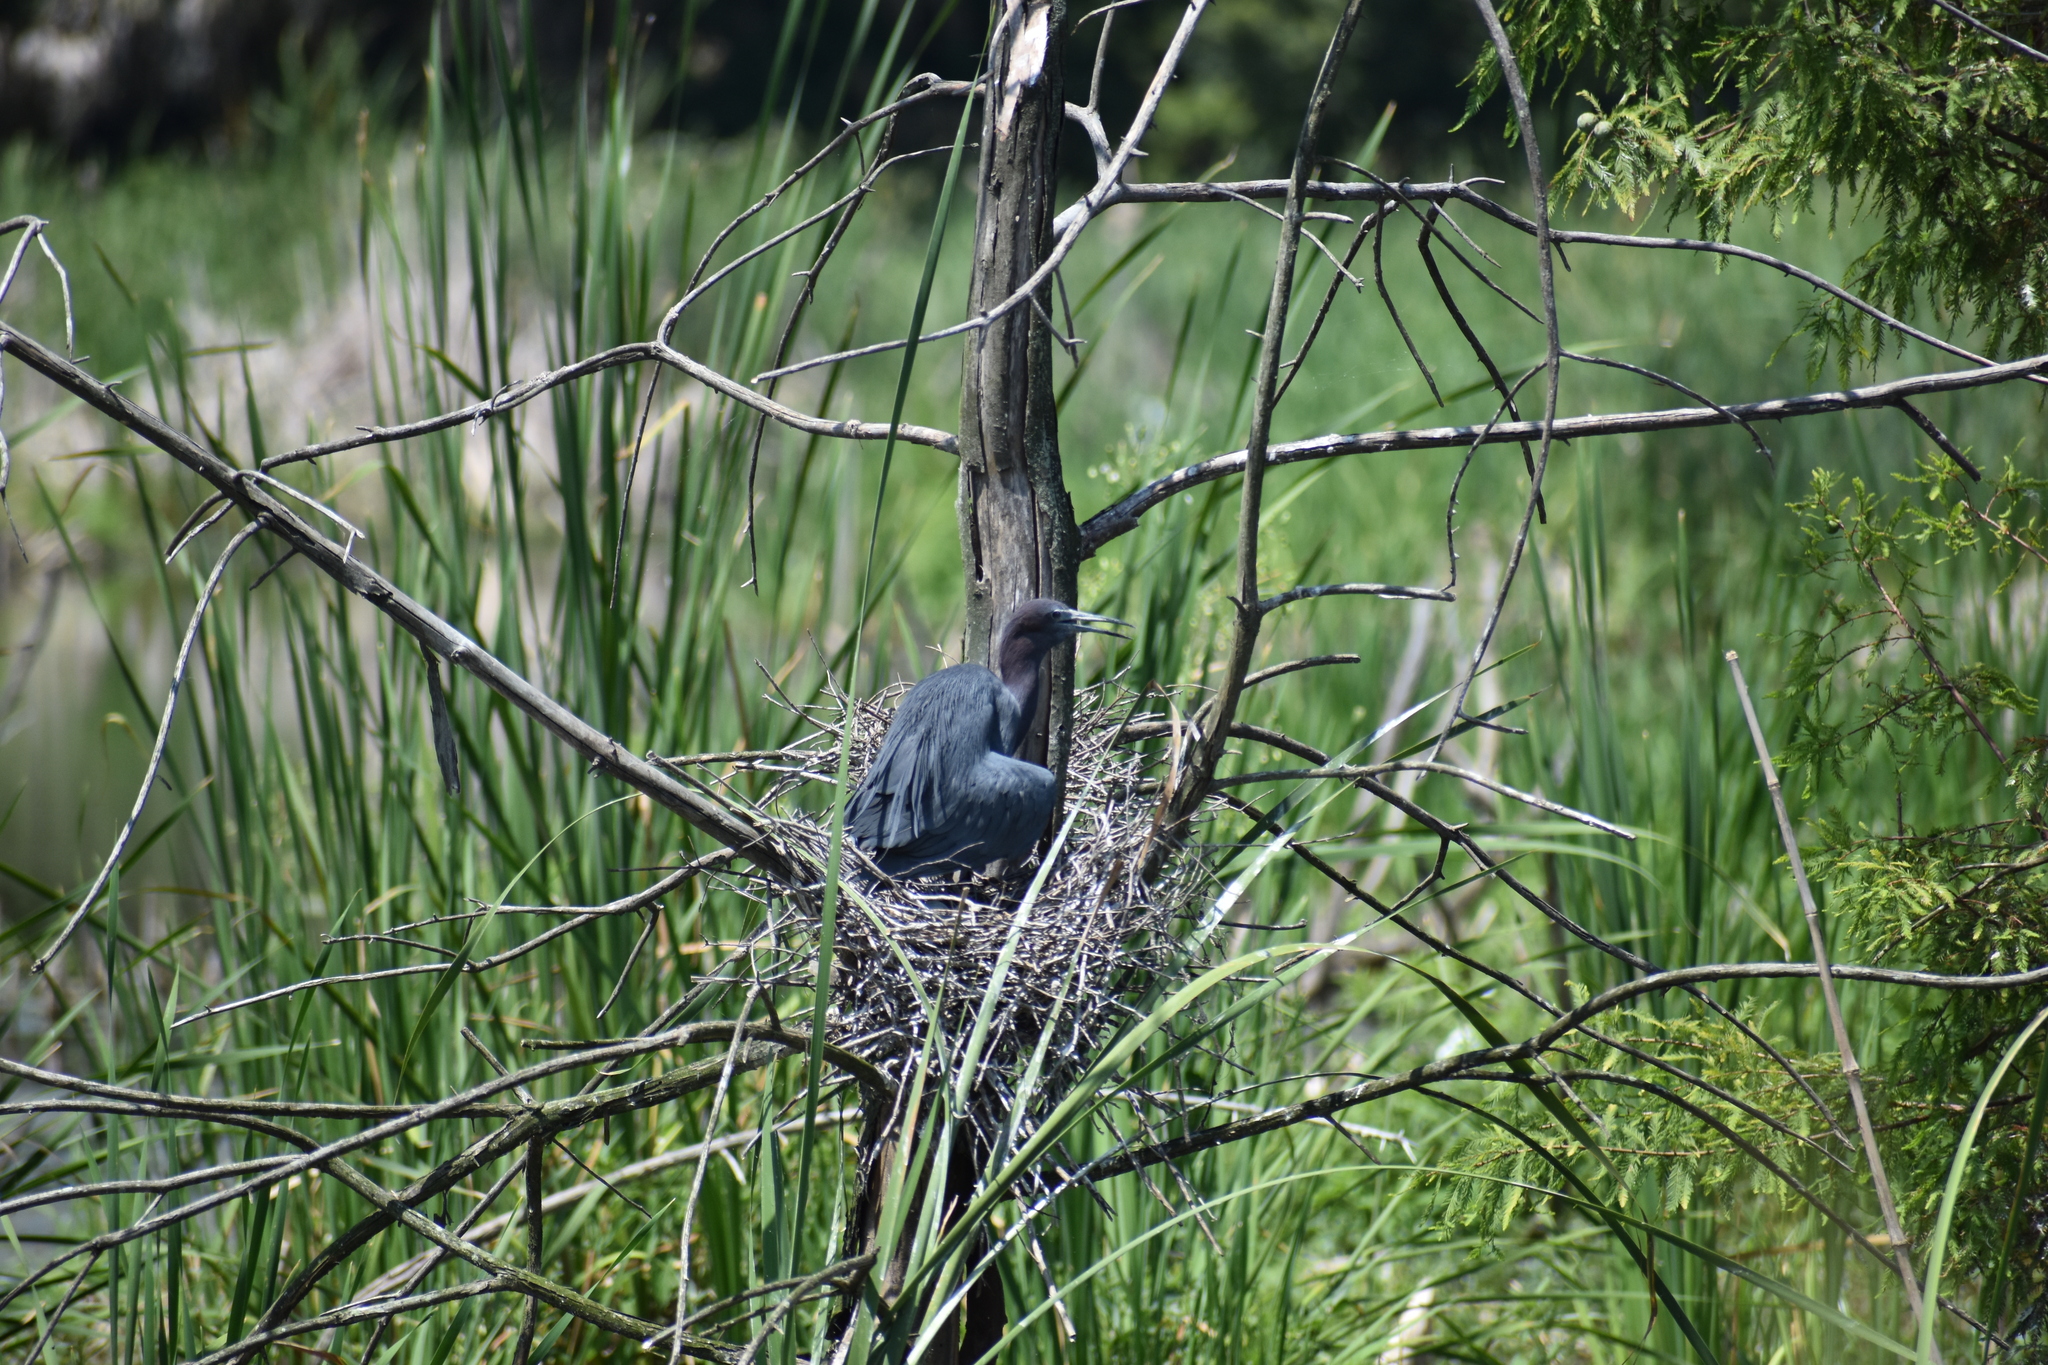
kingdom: Animalia
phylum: Chordata
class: Aves
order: Pelecaniformes
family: Ardeidae
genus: Egretta
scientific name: Egretta caerulea
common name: Little blue heron
